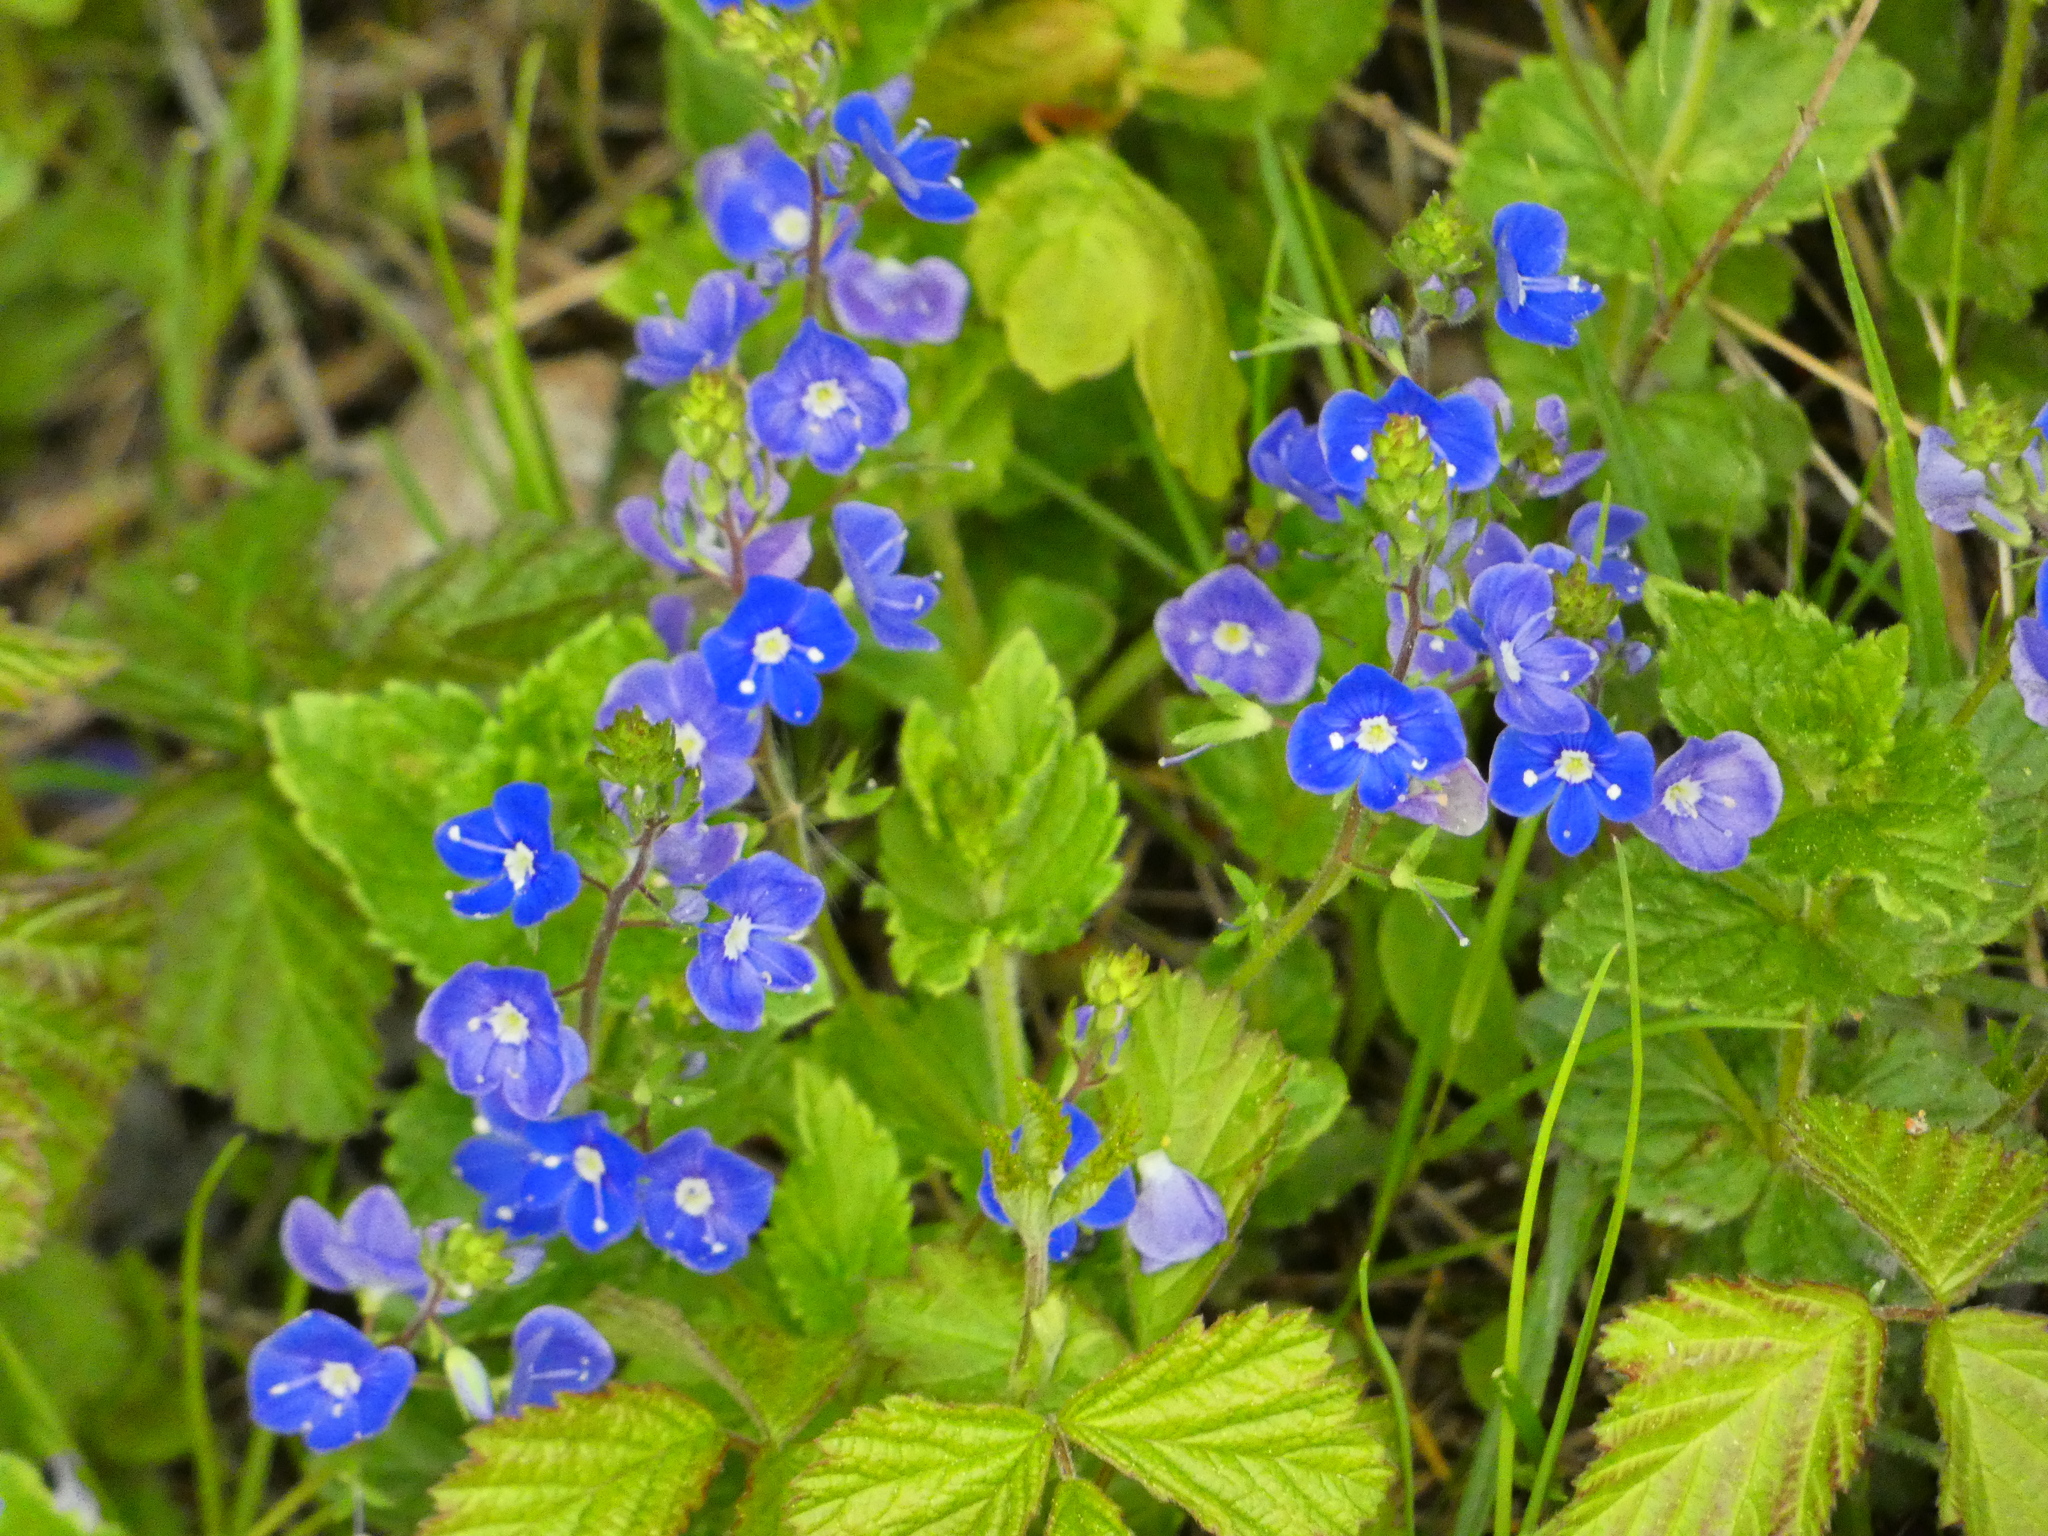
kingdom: Plantae
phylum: Tracheophyta
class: Magnoliopsida
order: Lamiales
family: Plantaginaceae
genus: Veronica
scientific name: Veronica chamaedrys
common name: Germander speedwell
